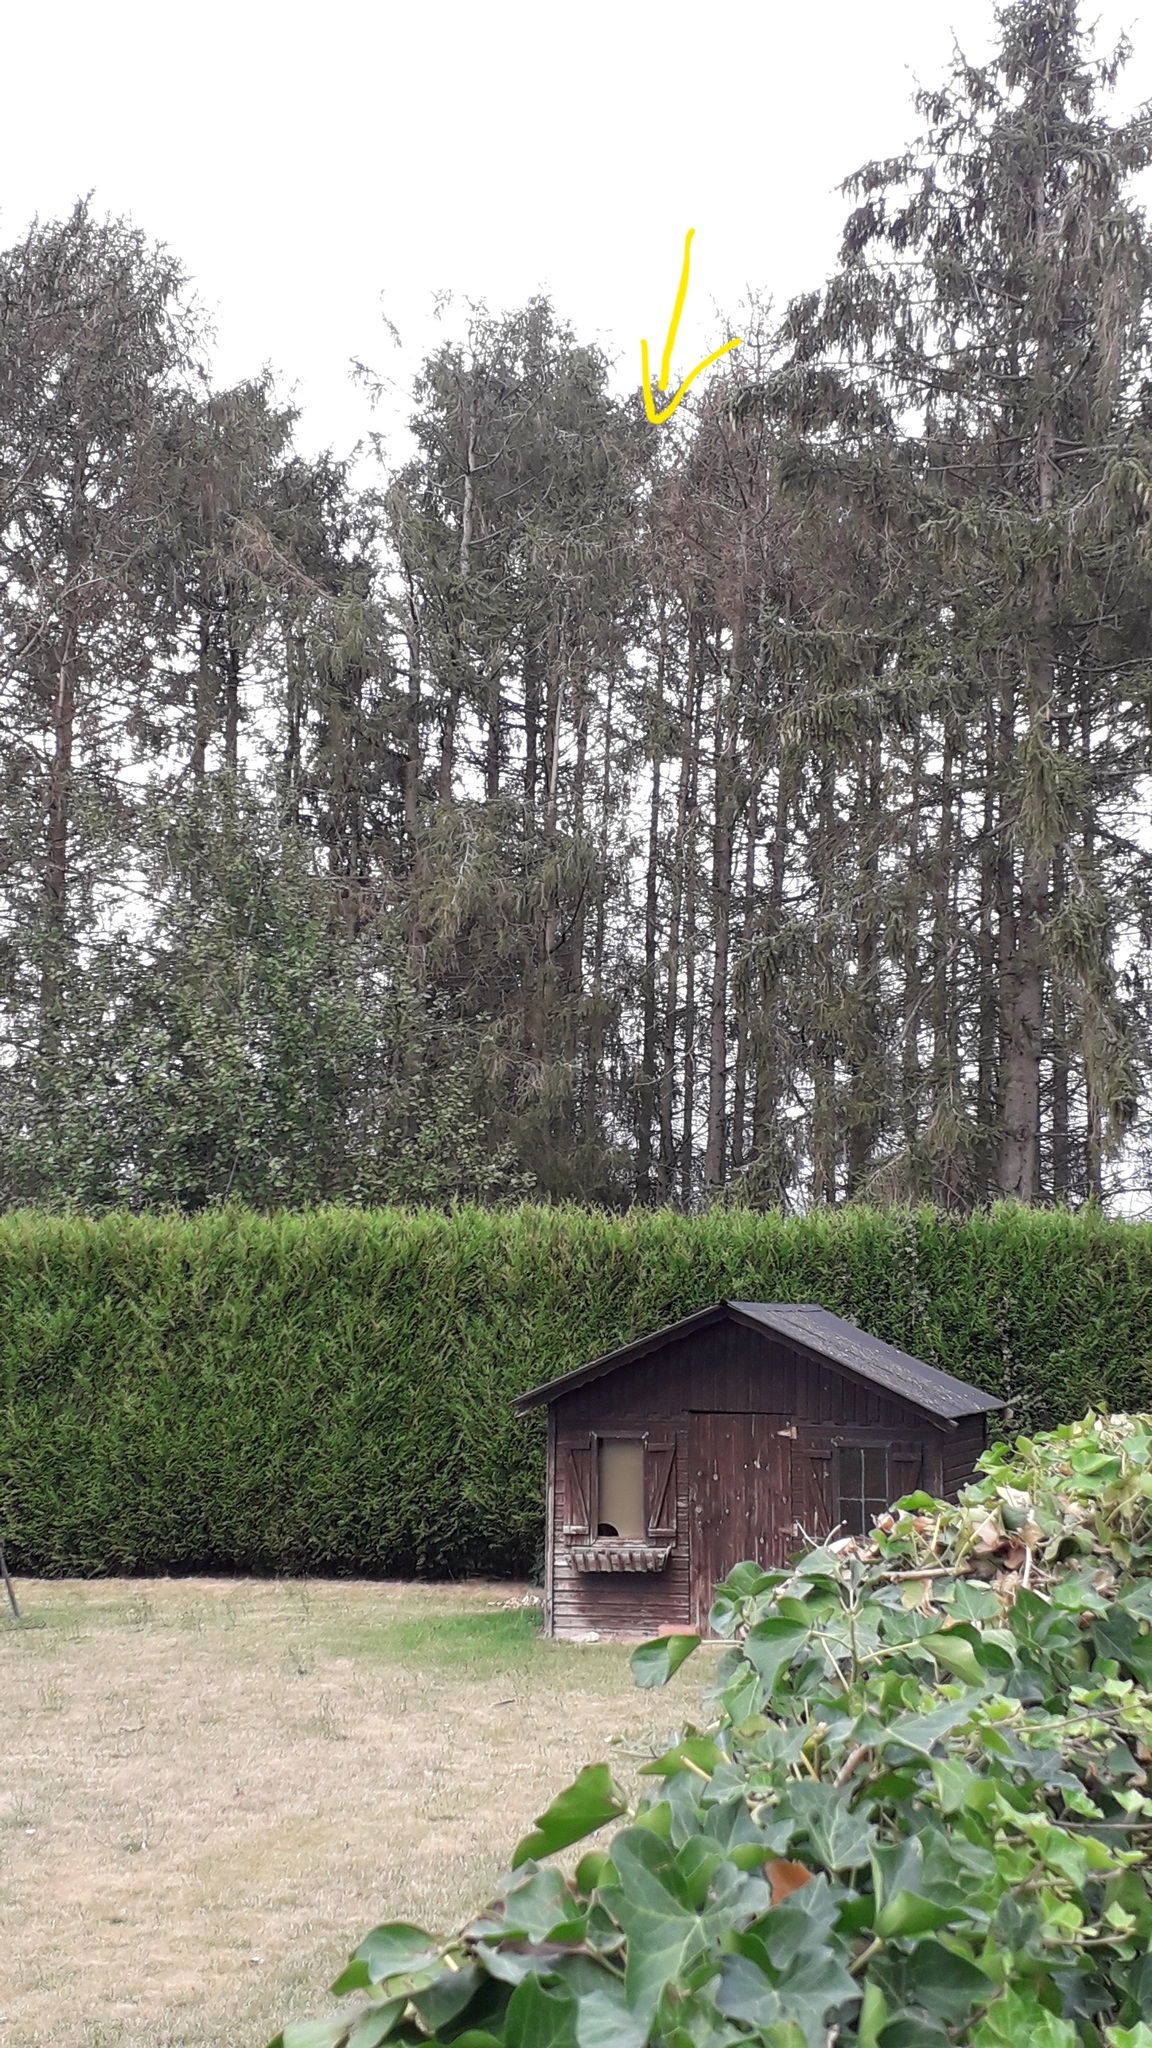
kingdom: Animalia
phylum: Arthropoda
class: Insecta
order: Hymenoptera
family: Vespidae
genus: Vespa
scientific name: Vespa velutina
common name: Asian hornet
